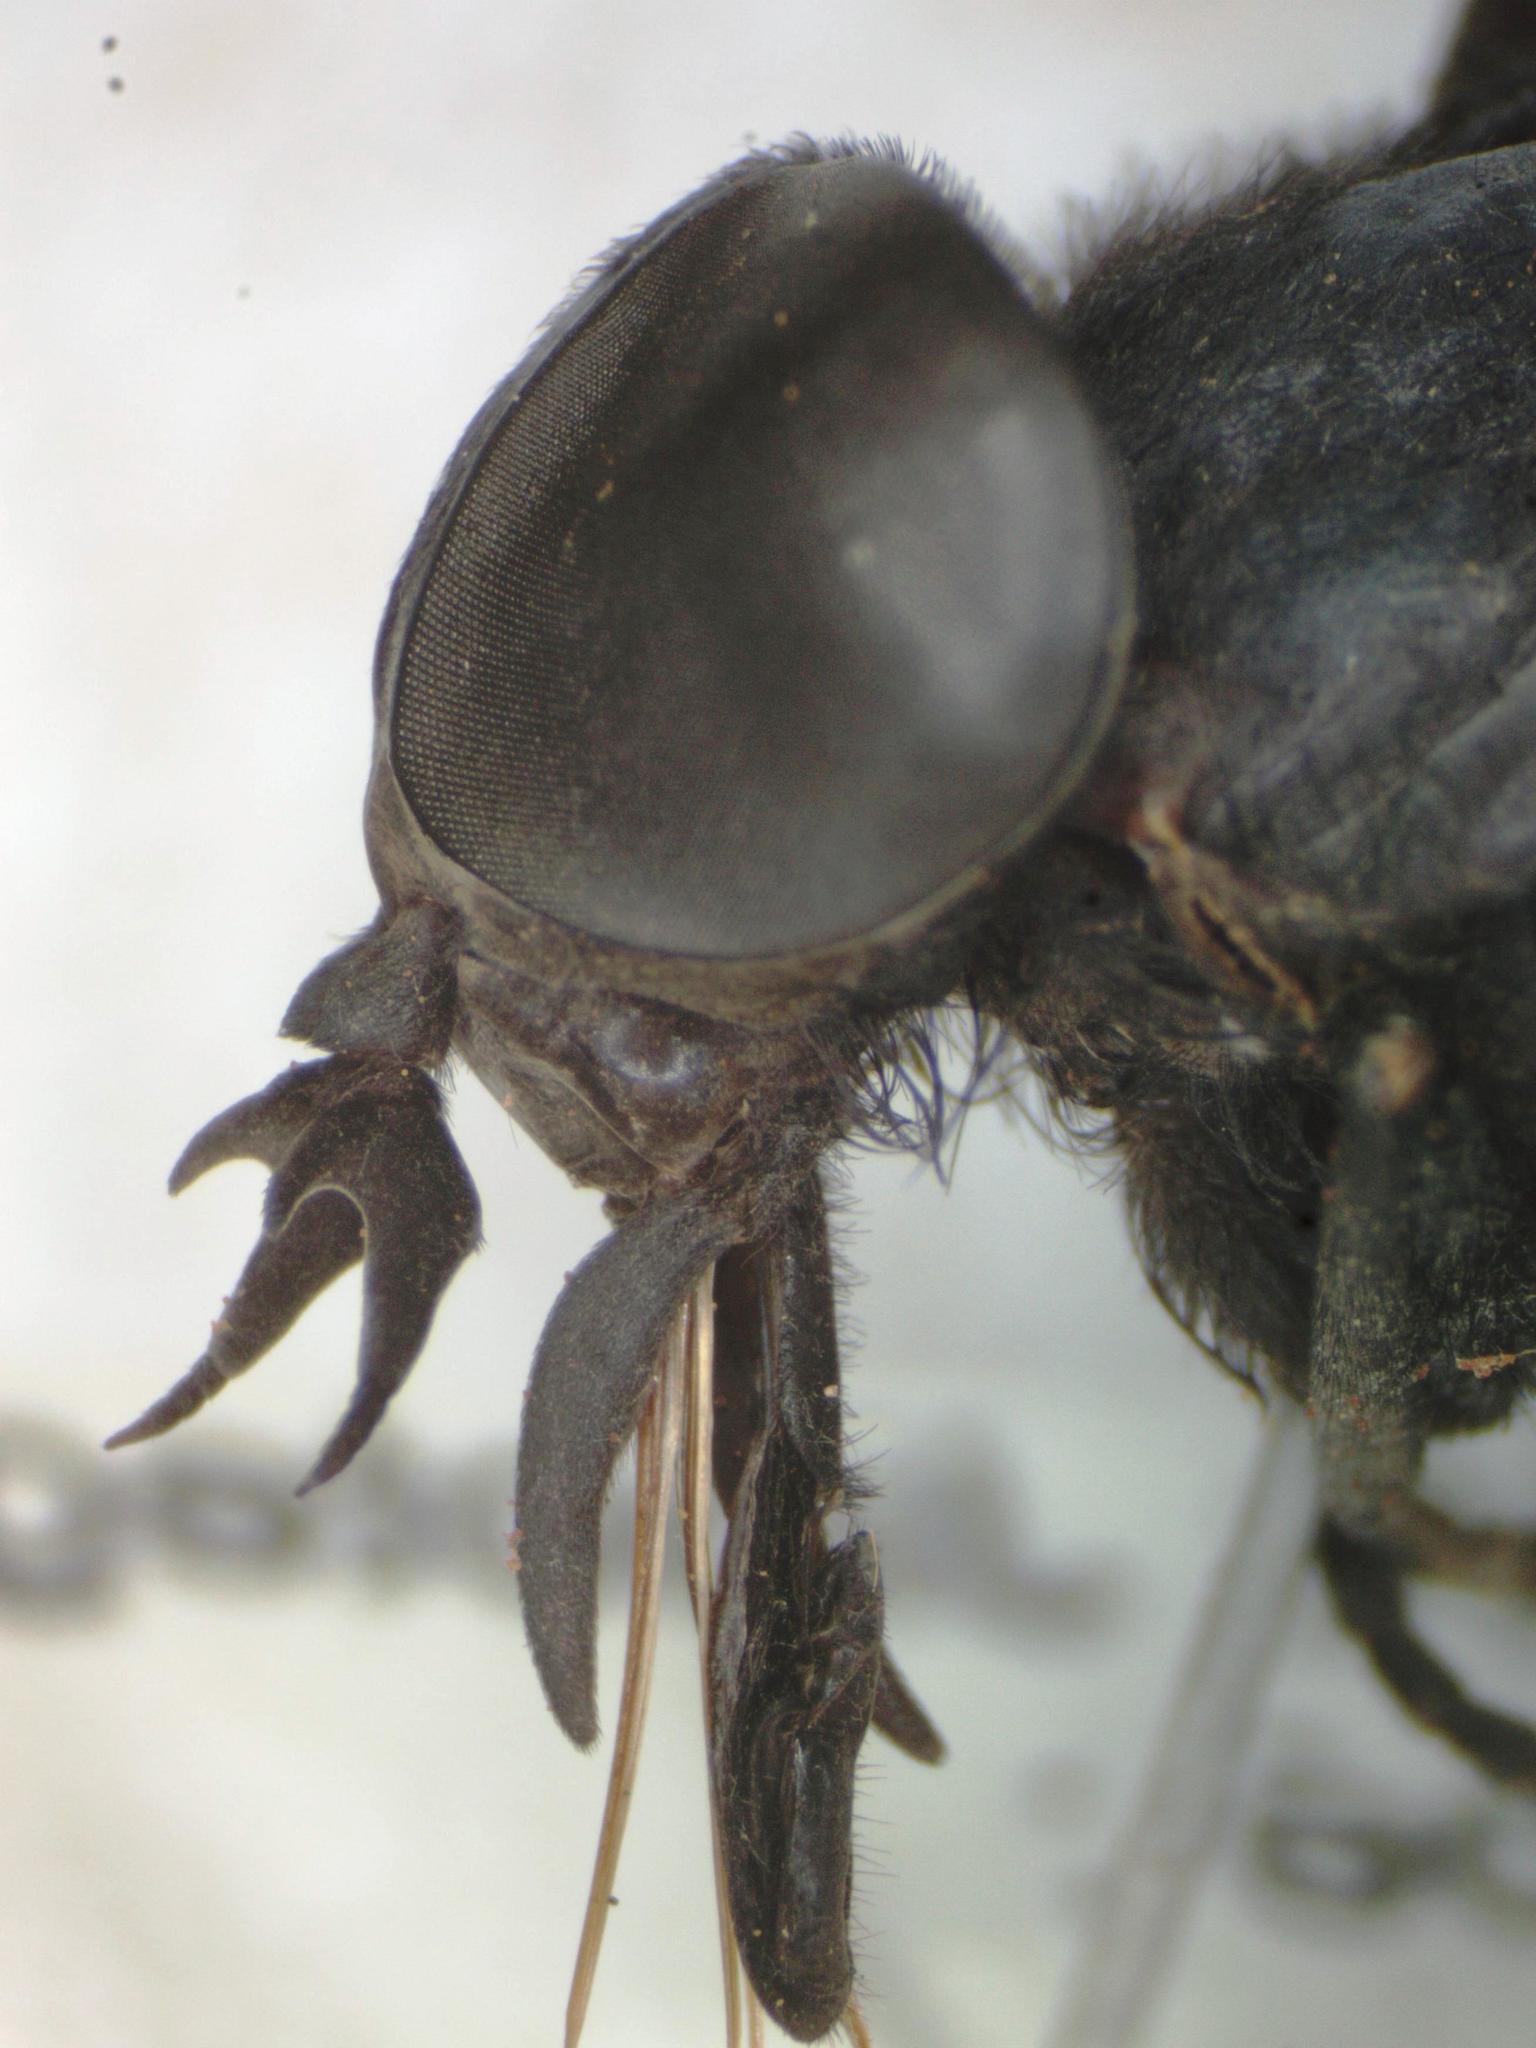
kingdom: Animalia
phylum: Arthropoda
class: Insecta
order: Diptera
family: Tabanidae
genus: Tabanus
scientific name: Tabanus erebus
